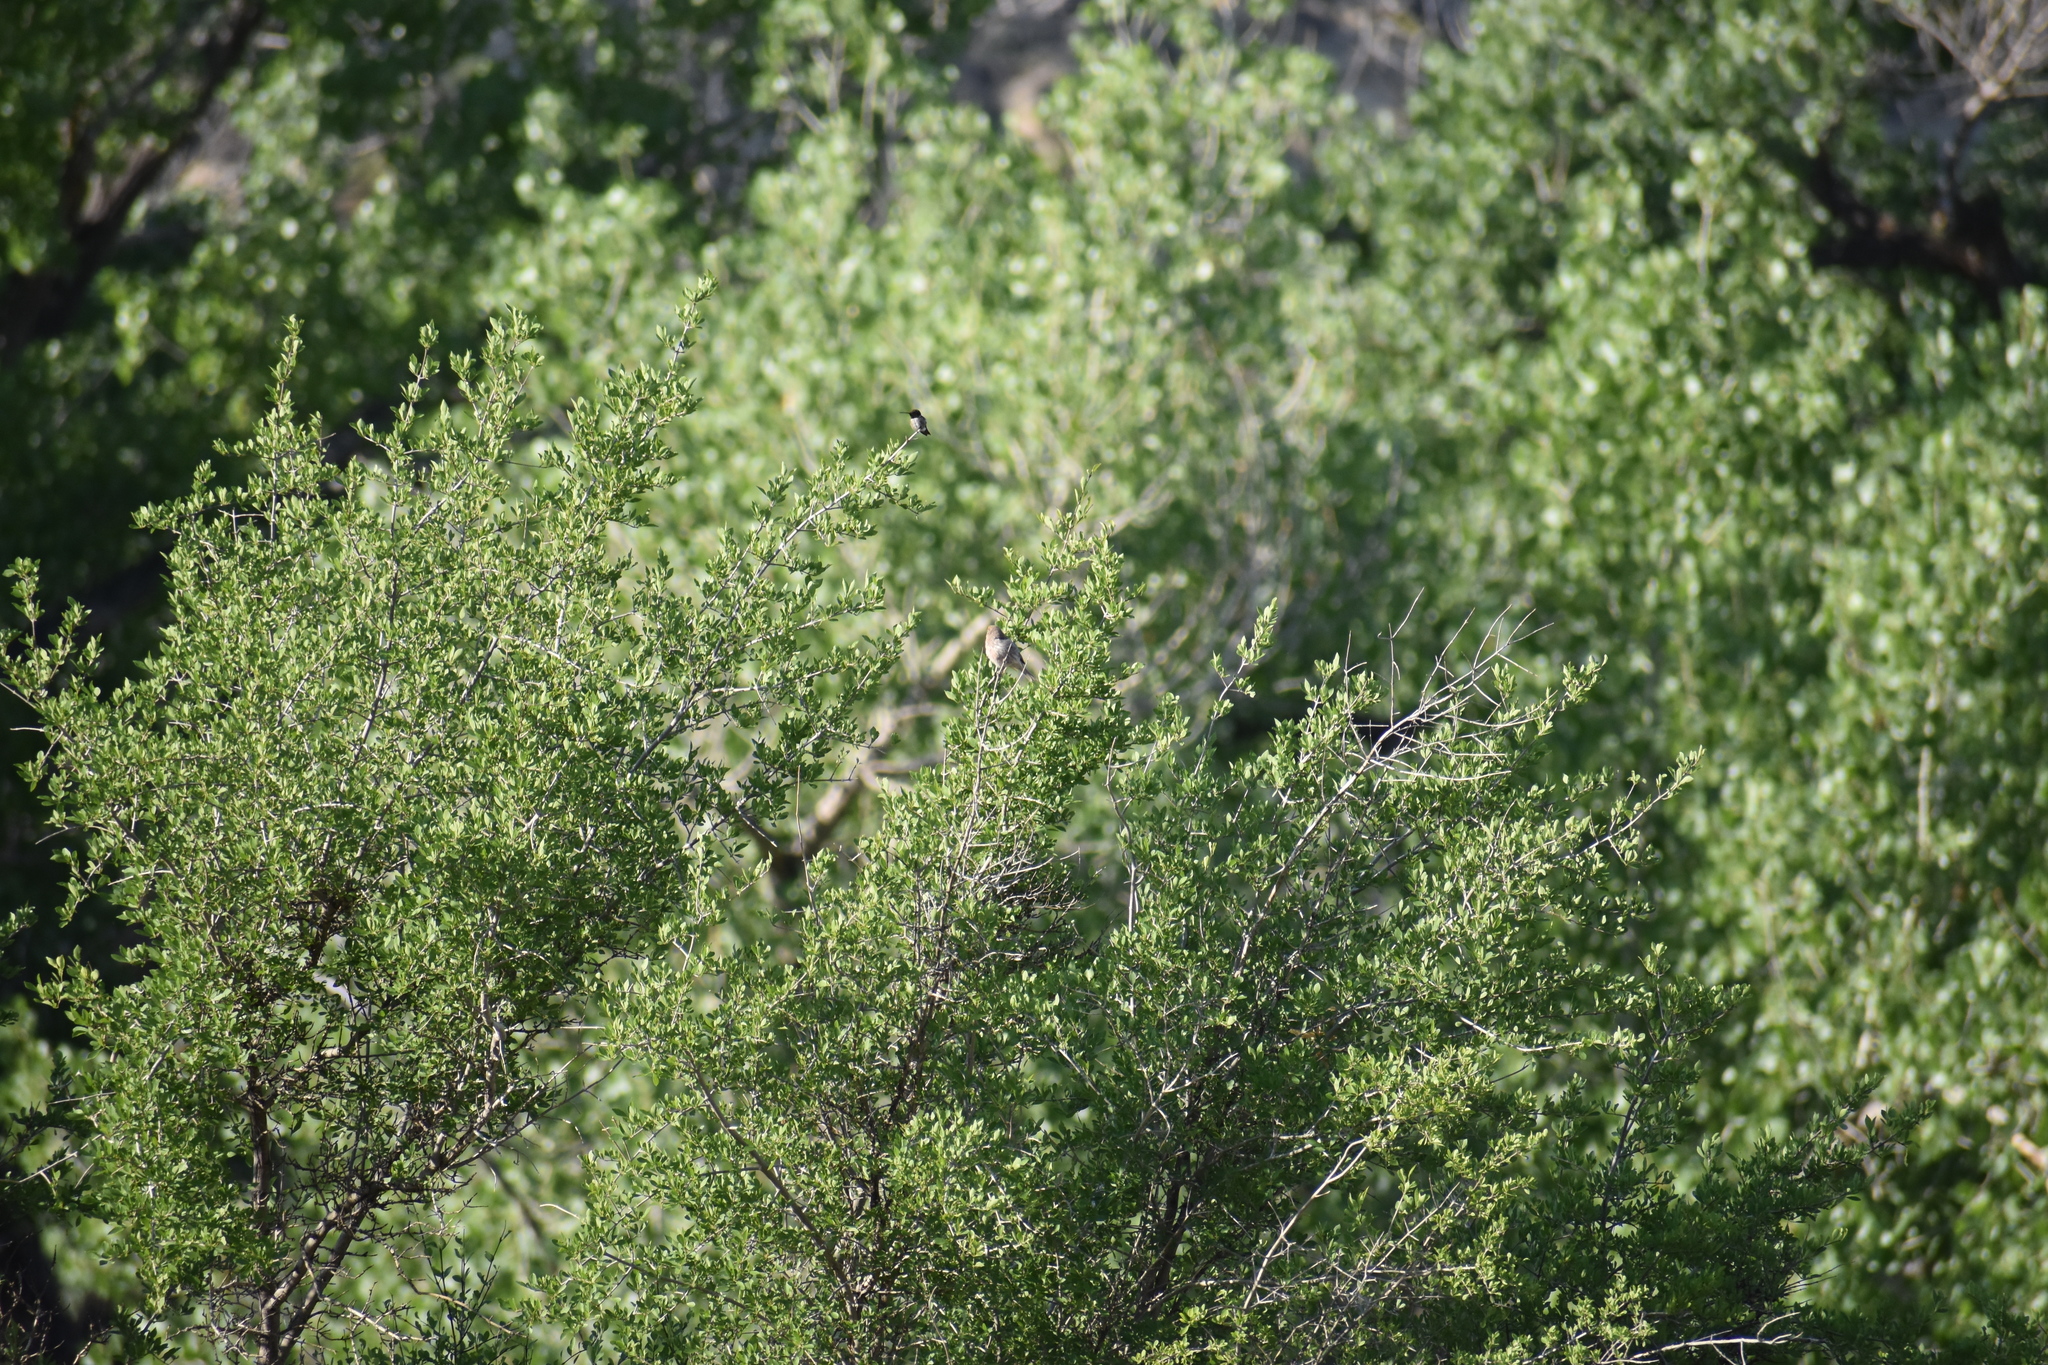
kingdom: Animalia
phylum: Chordata
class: Aves
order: Apodiformes
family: Trochilidae
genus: Archilochus
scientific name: Archilochus alexandri
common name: Black-chinned hummingbird
